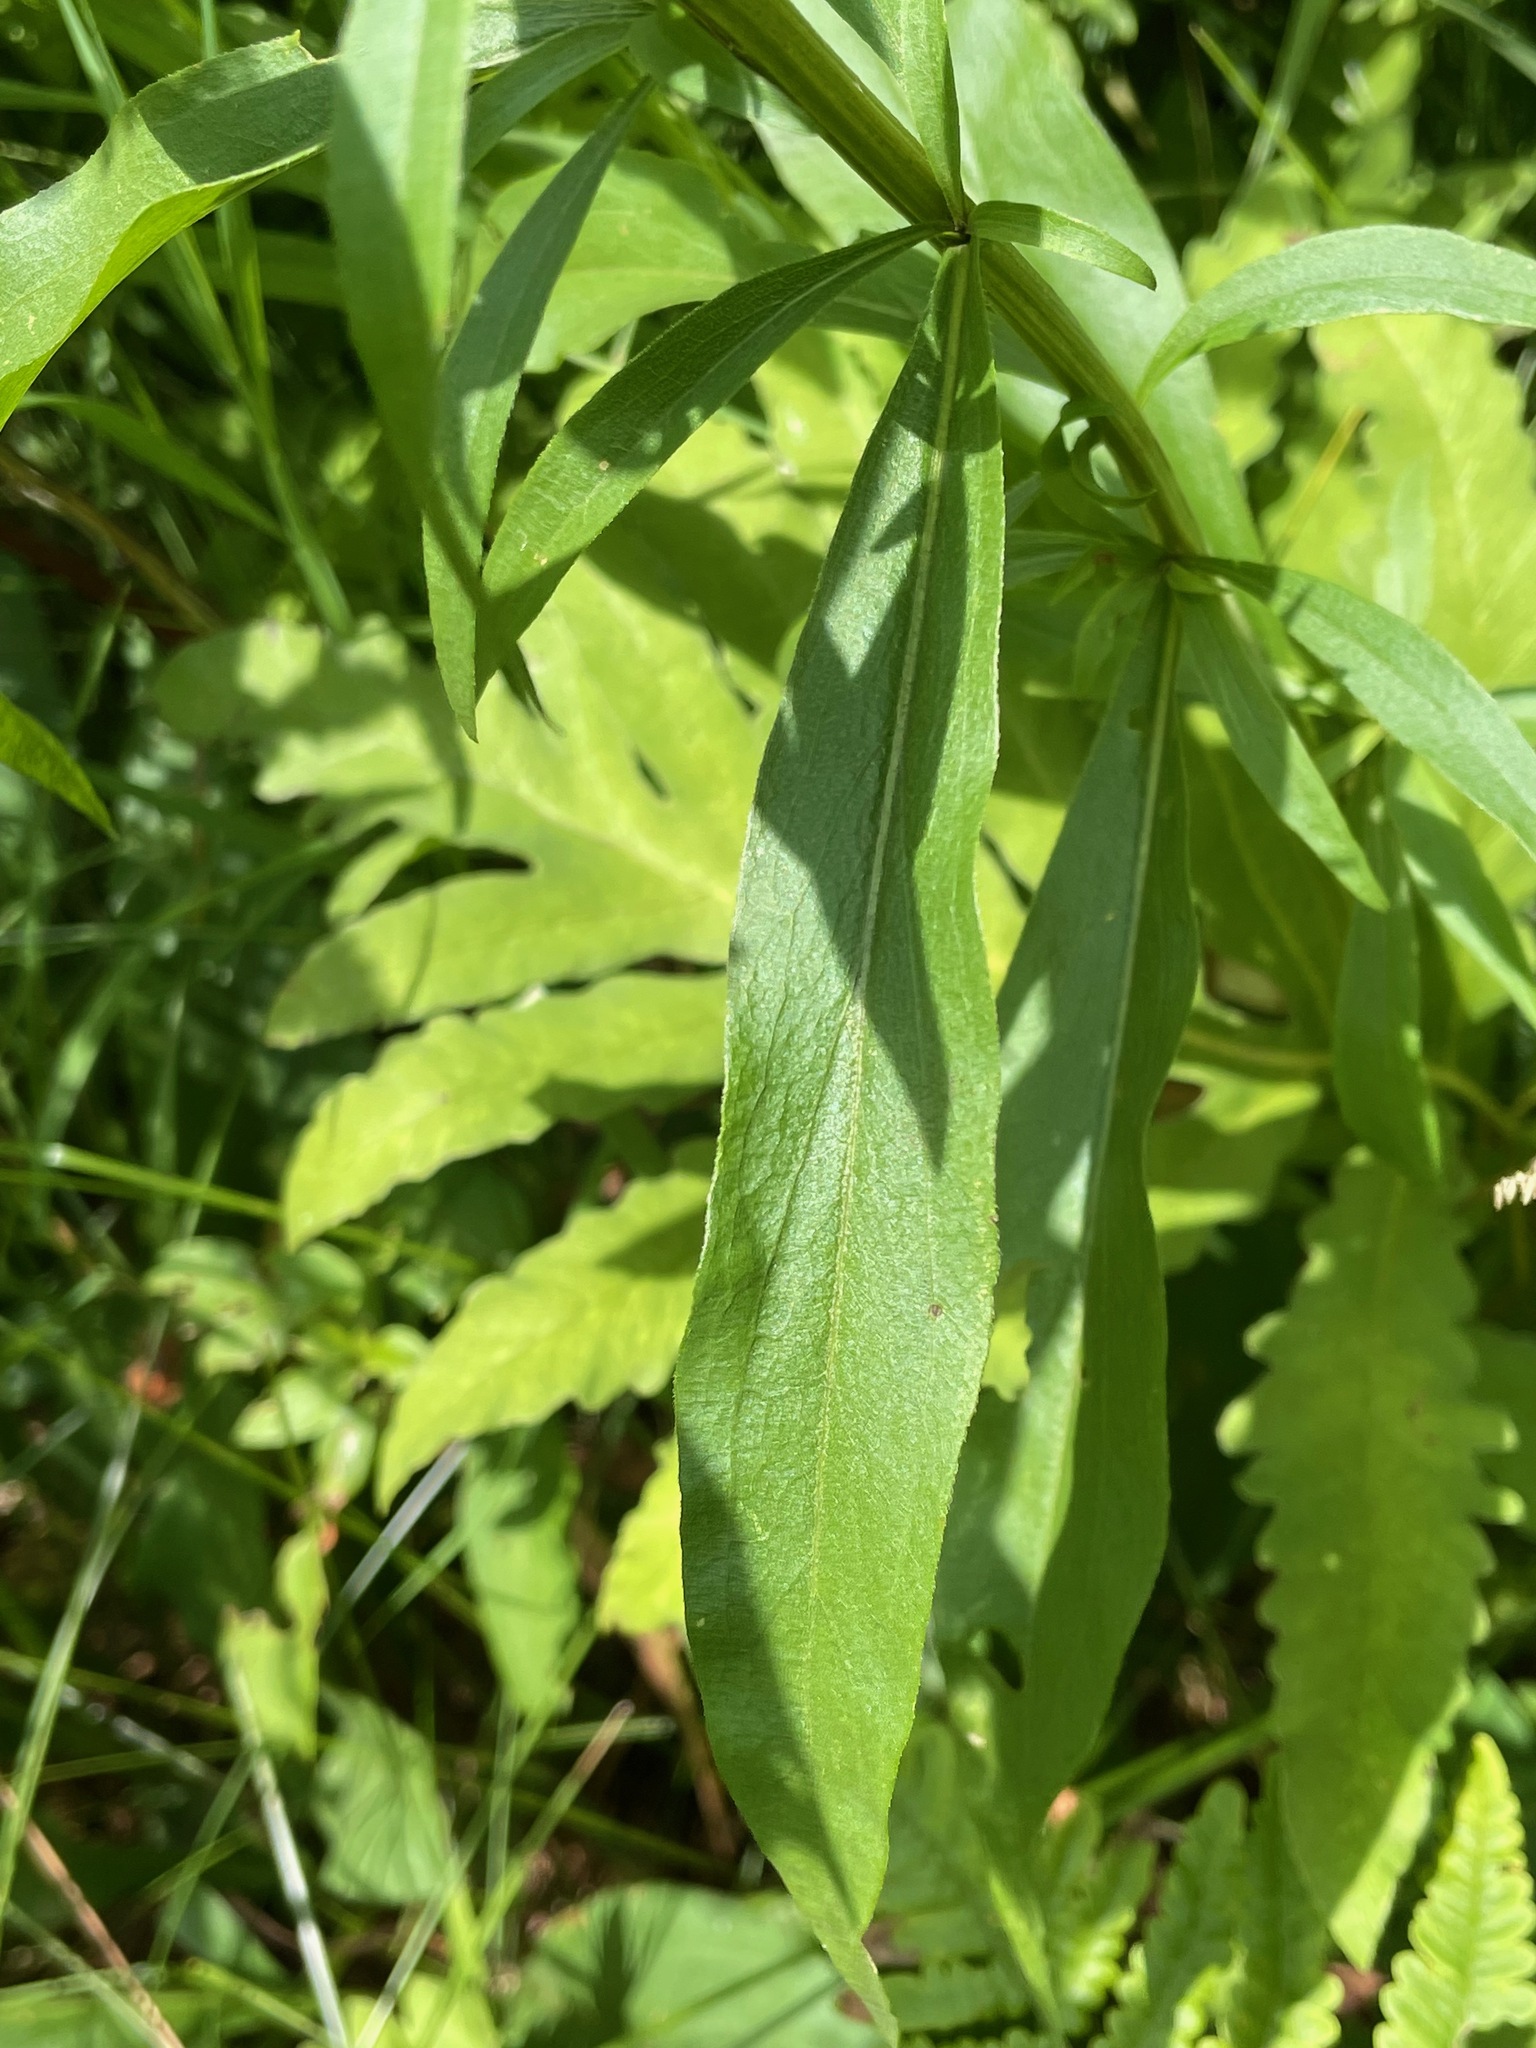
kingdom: Plantae
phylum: Tracheophyta
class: Magnoliopsida
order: Asterales
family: Asteraceae
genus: Solidago
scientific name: Solidago juncea
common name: Early goldenrod
